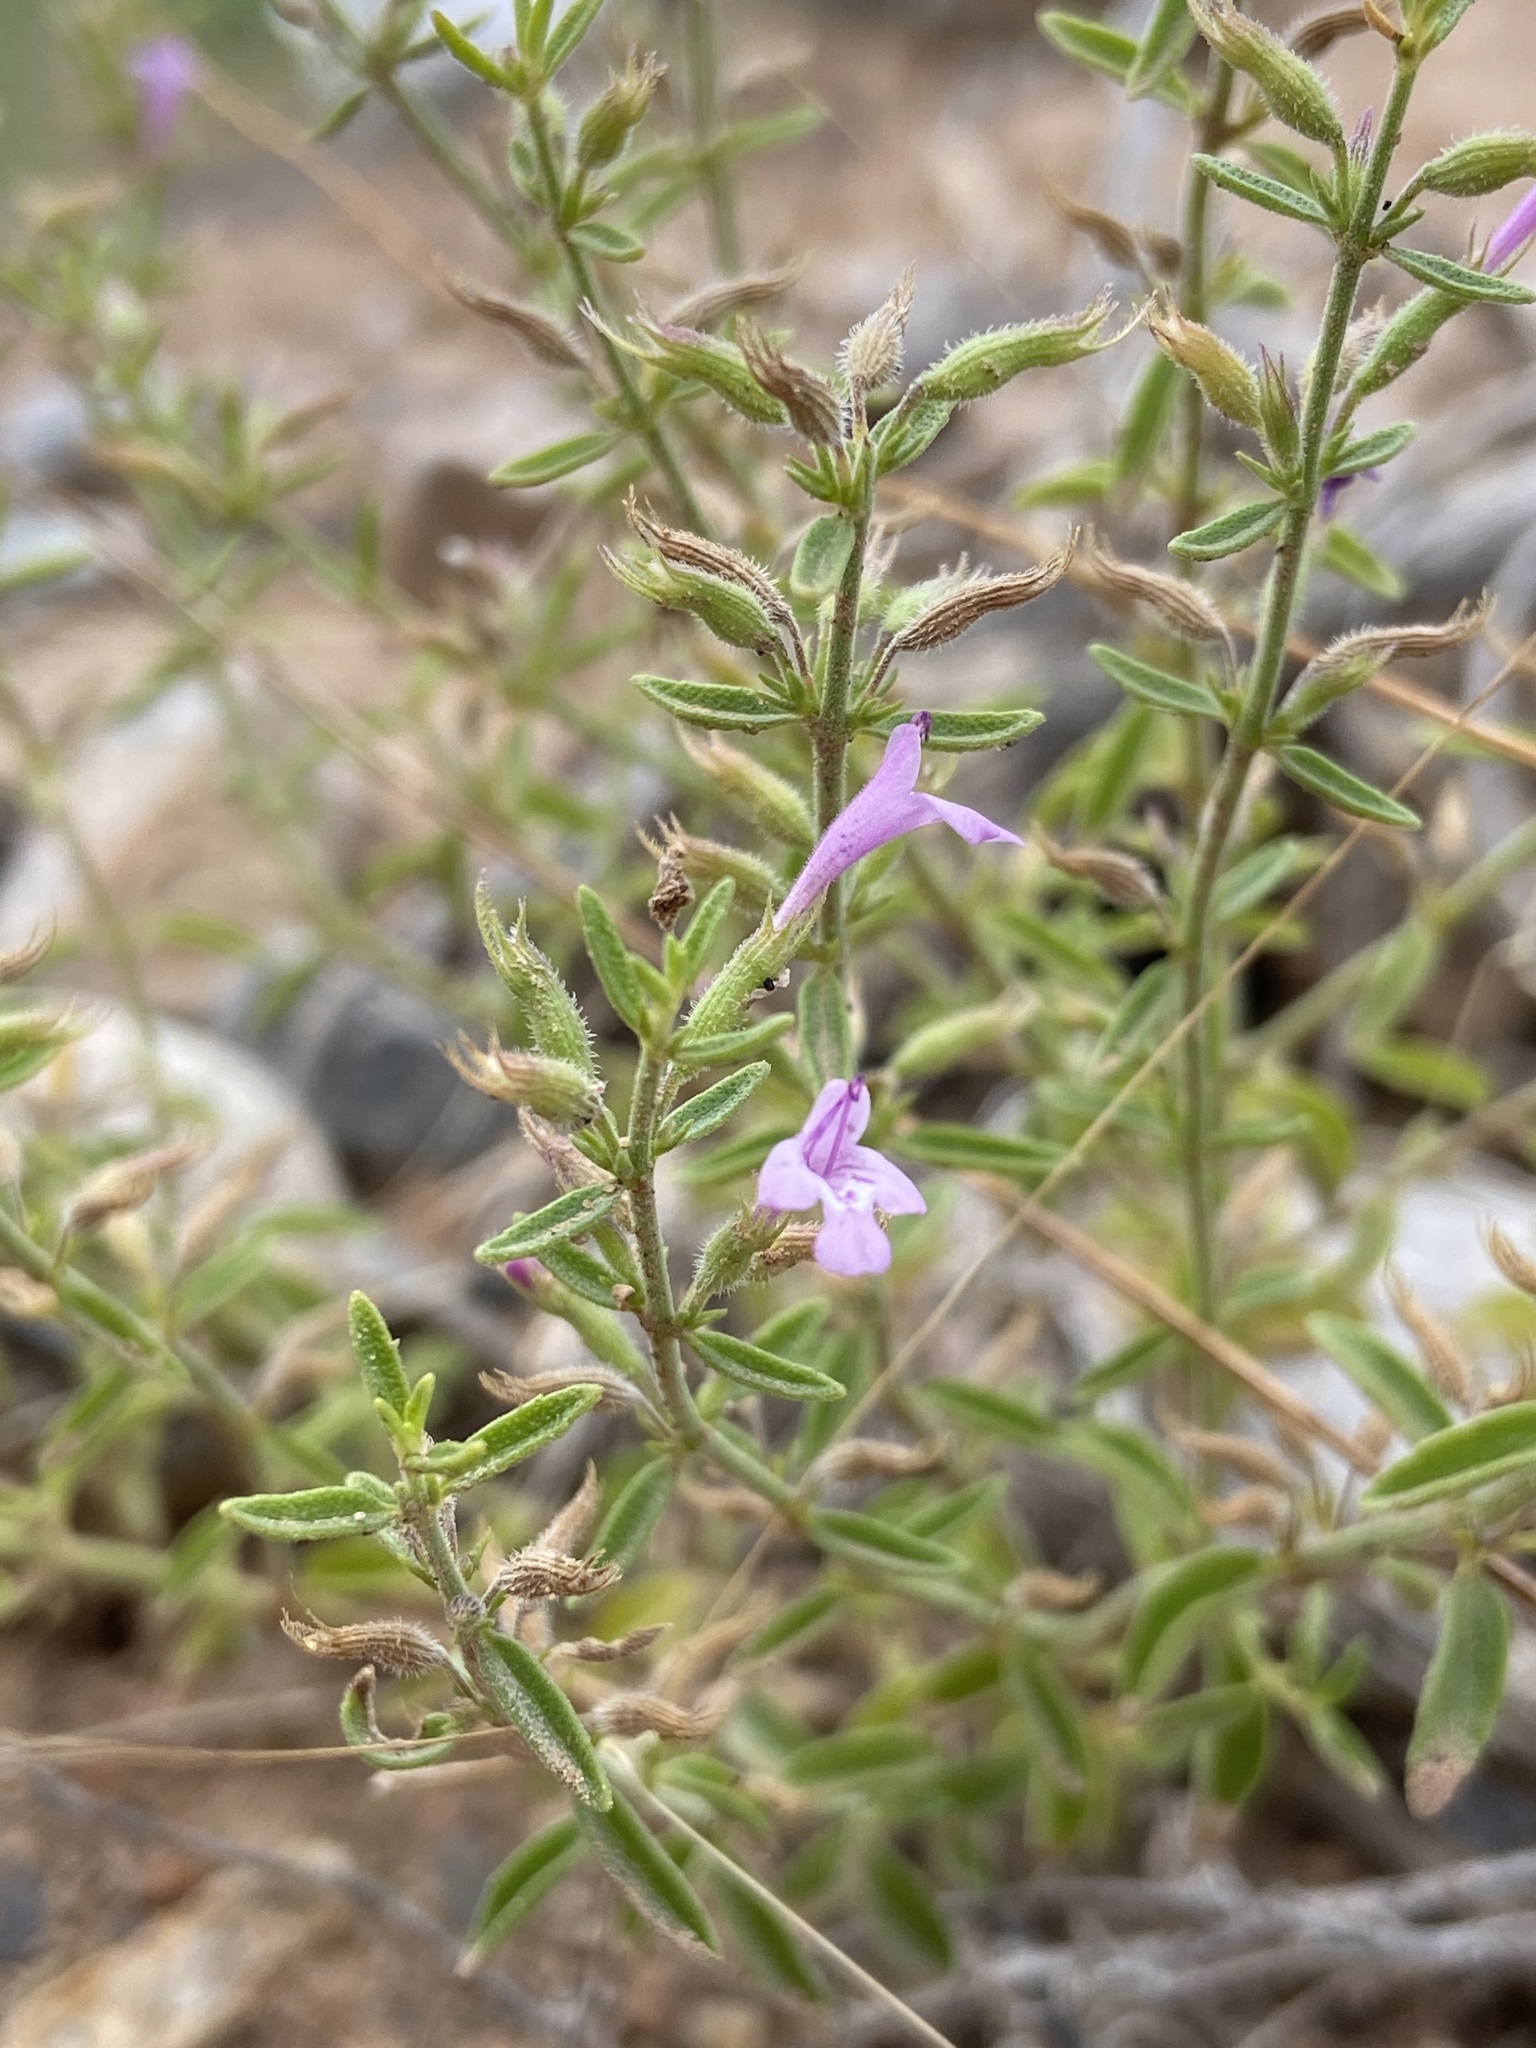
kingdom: Plantae
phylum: Tracheophyta
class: Magnoliopsida
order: Lamiales
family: Lamiaceae
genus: Hedeoma
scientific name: Hedeoma drummondii
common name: New mexico pennyroyal
